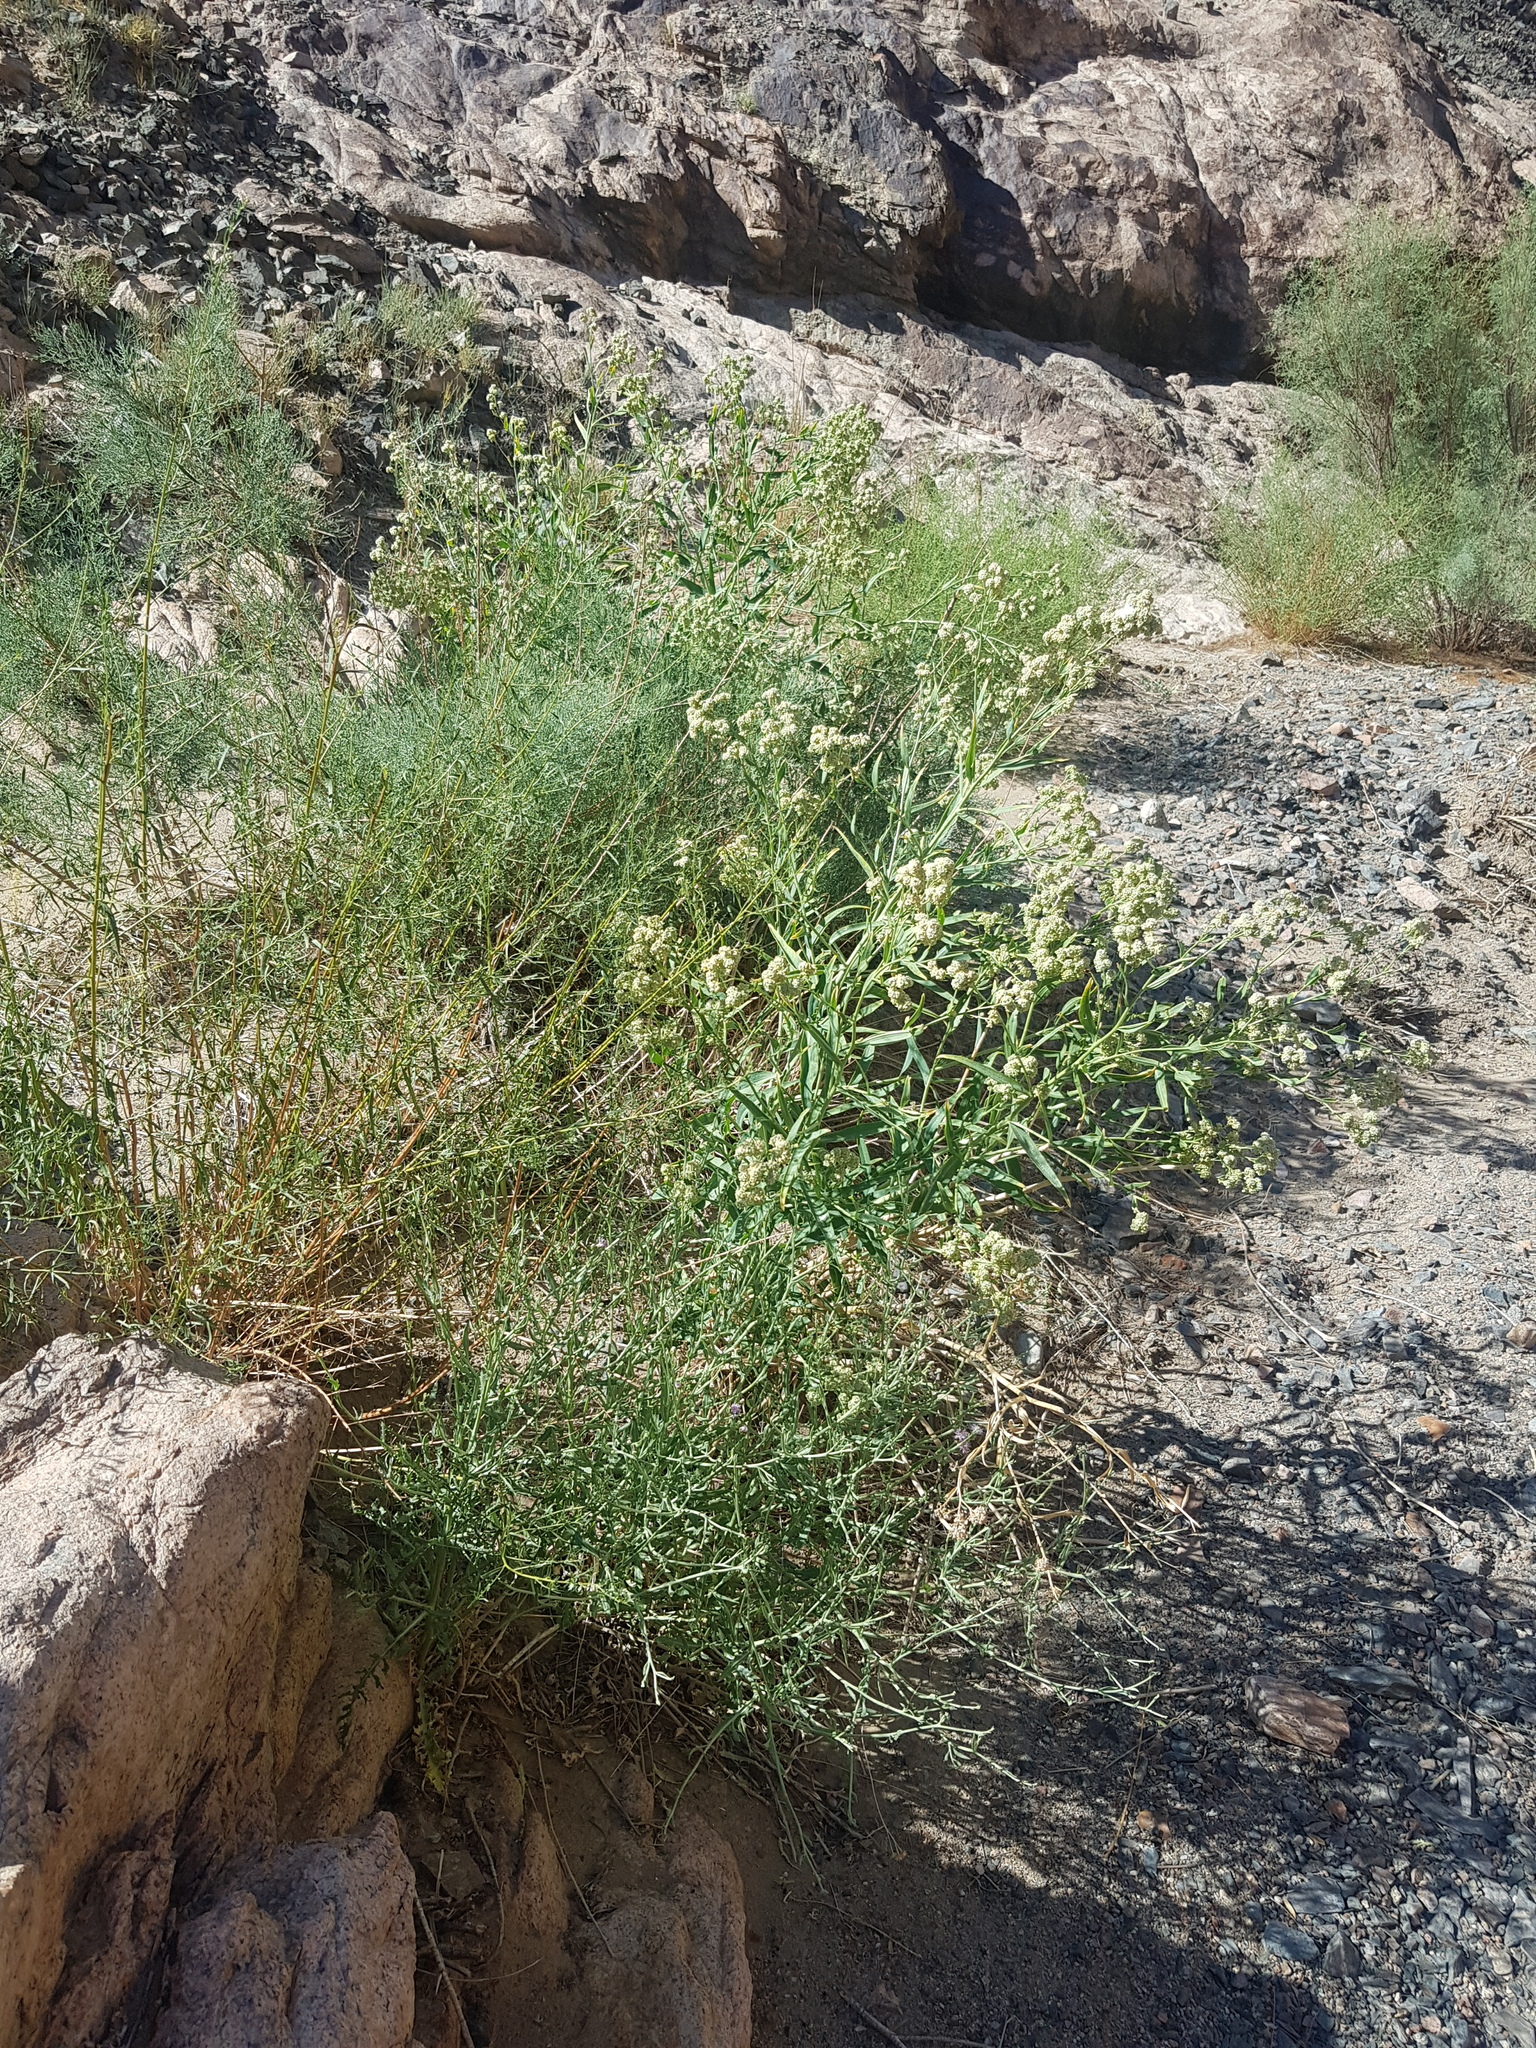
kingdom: Plantae
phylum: Tracheophyta
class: Magnoliopsida
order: Brassicales
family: Brassicaceae
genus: Lepidium
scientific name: Lepidium latifolium
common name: Dittander
